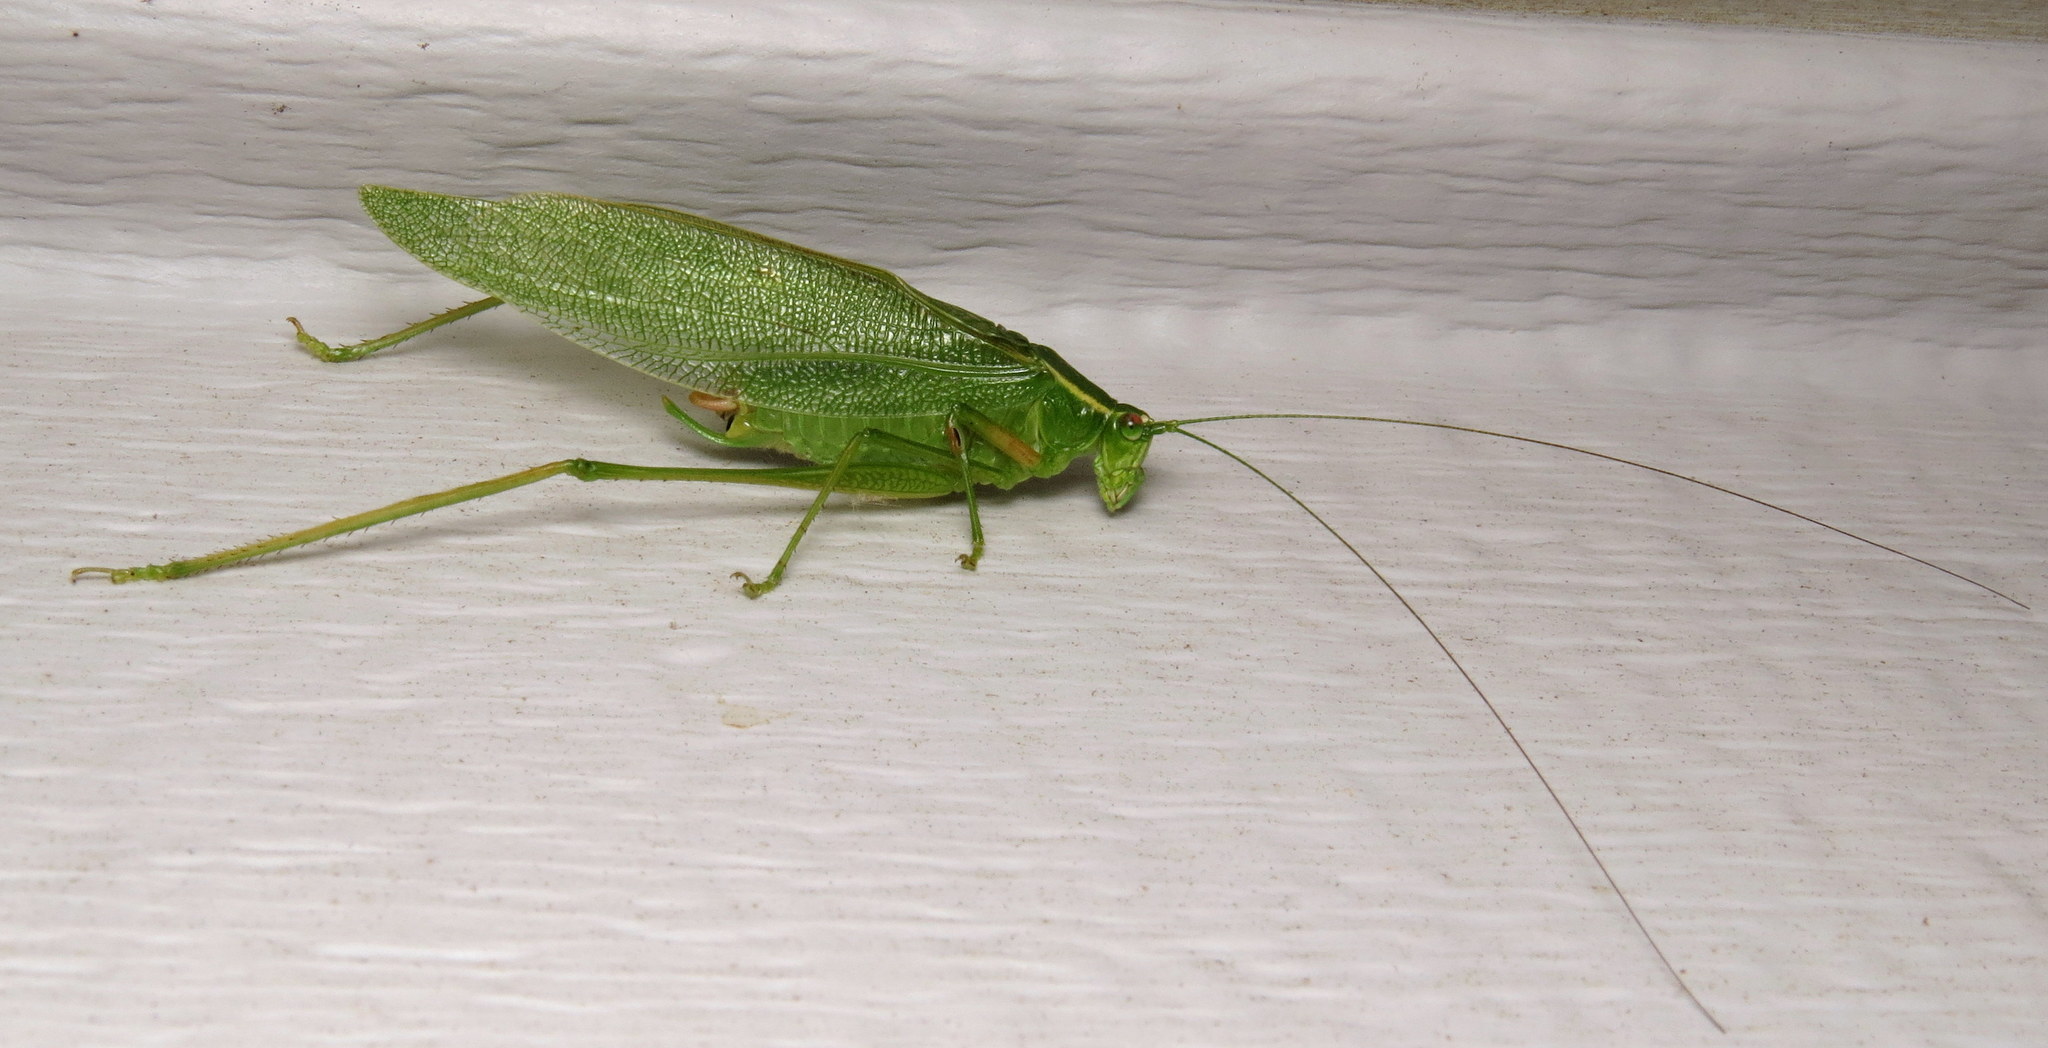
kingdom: Animalia
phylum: Arthropoda
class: Insecta
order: Orthoptera
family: Tettigoniidae
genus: Scudderia
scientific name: Scudderia septentrionalis
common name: Northern bush-katydid
